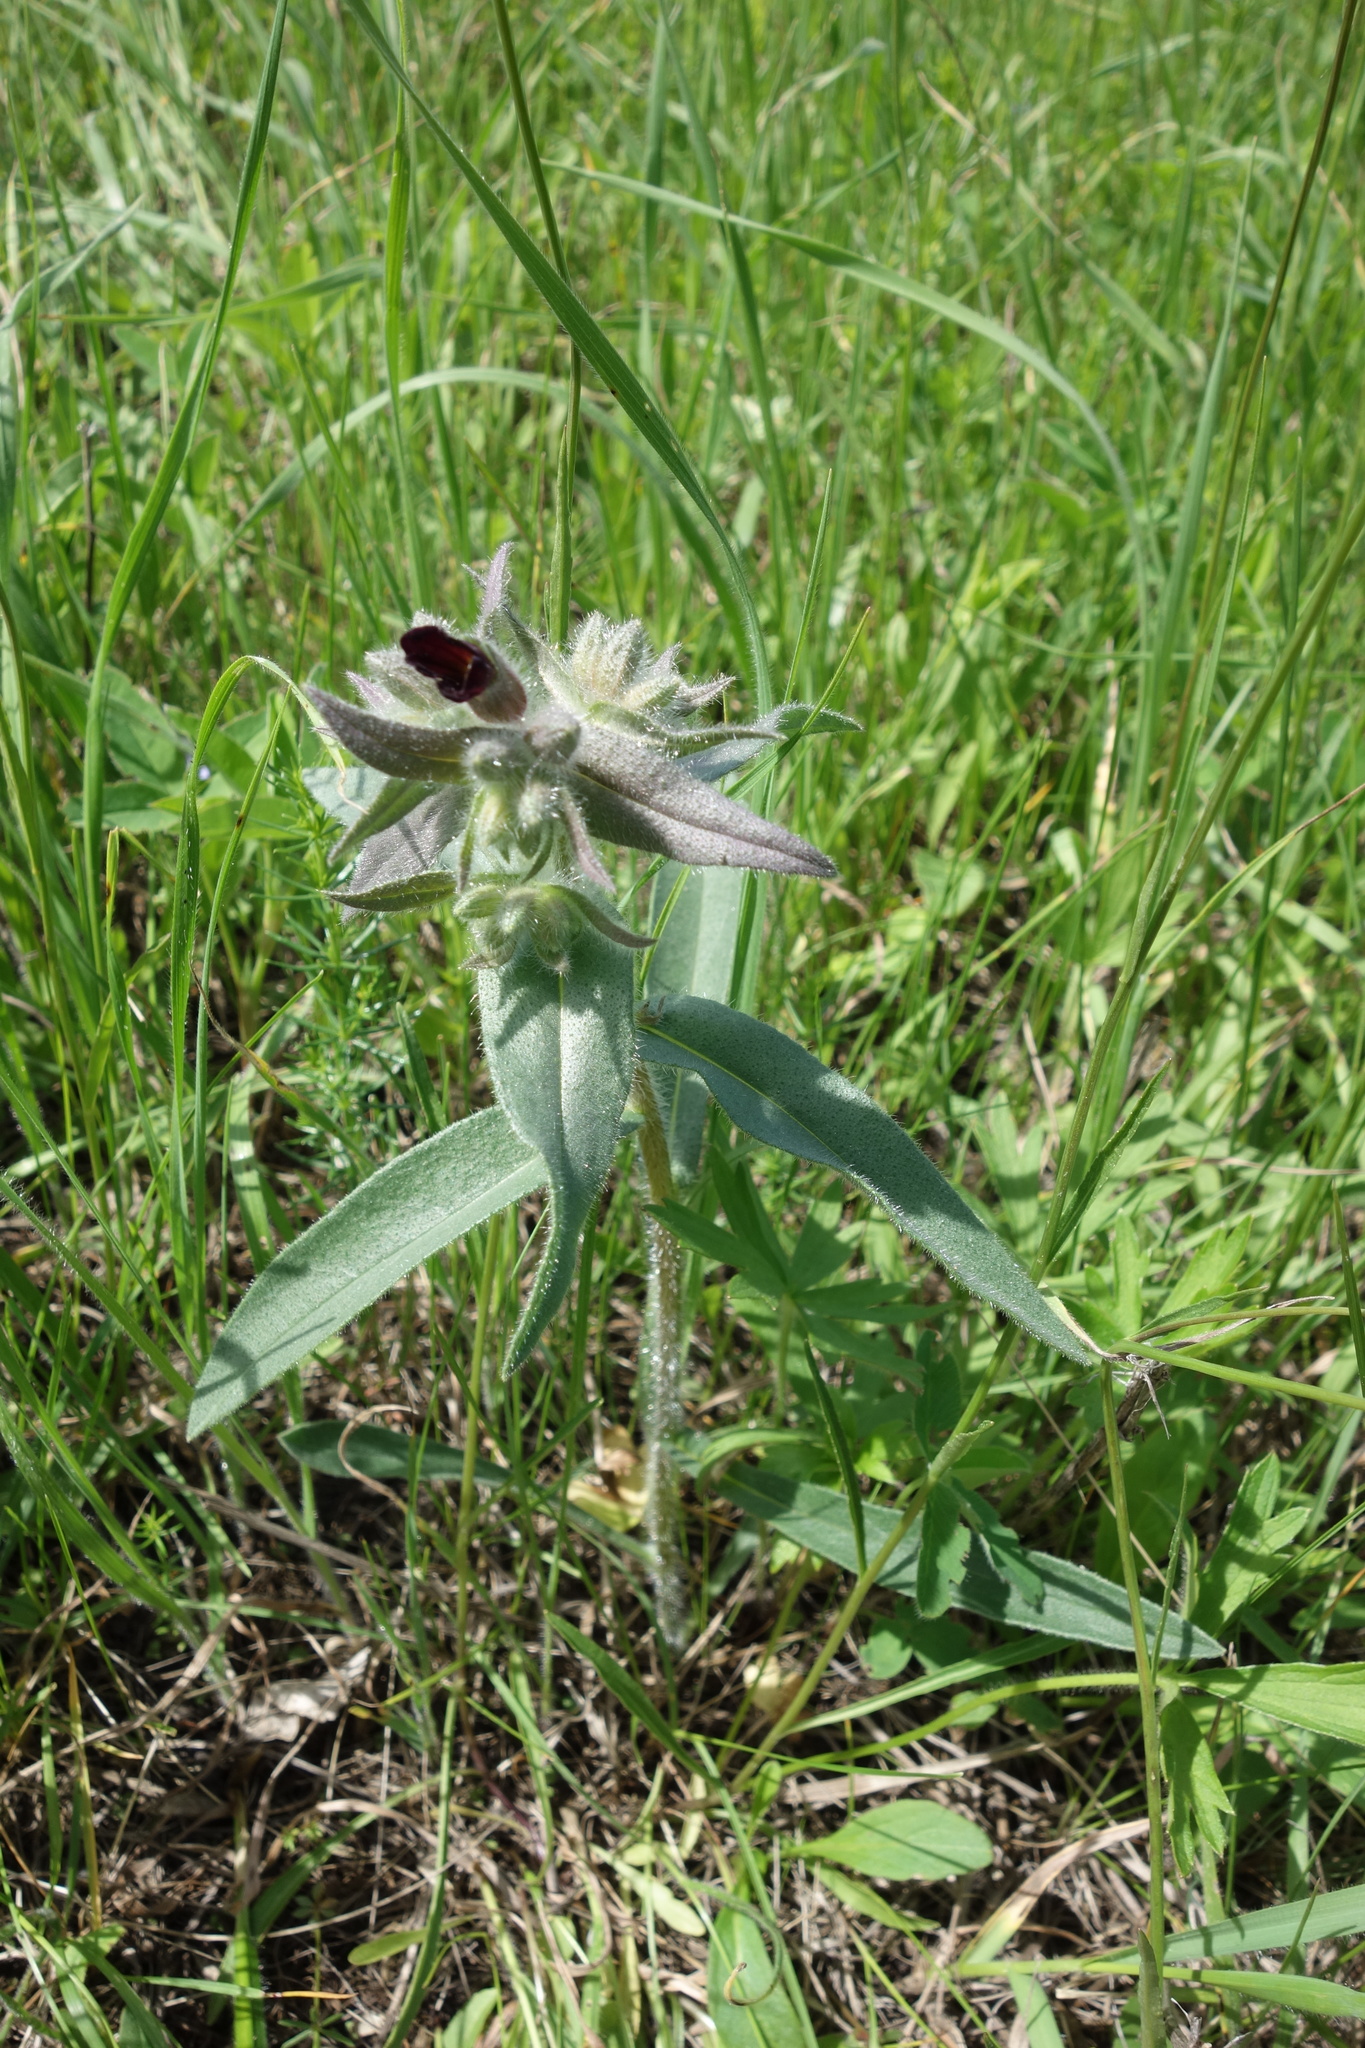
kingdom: Plantae
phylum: Tracheophyta
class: Magnoliopsida
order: Boraginales
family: Boraginaceae
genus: Nonea
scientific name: Nonea pulla
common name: Brown nonea
